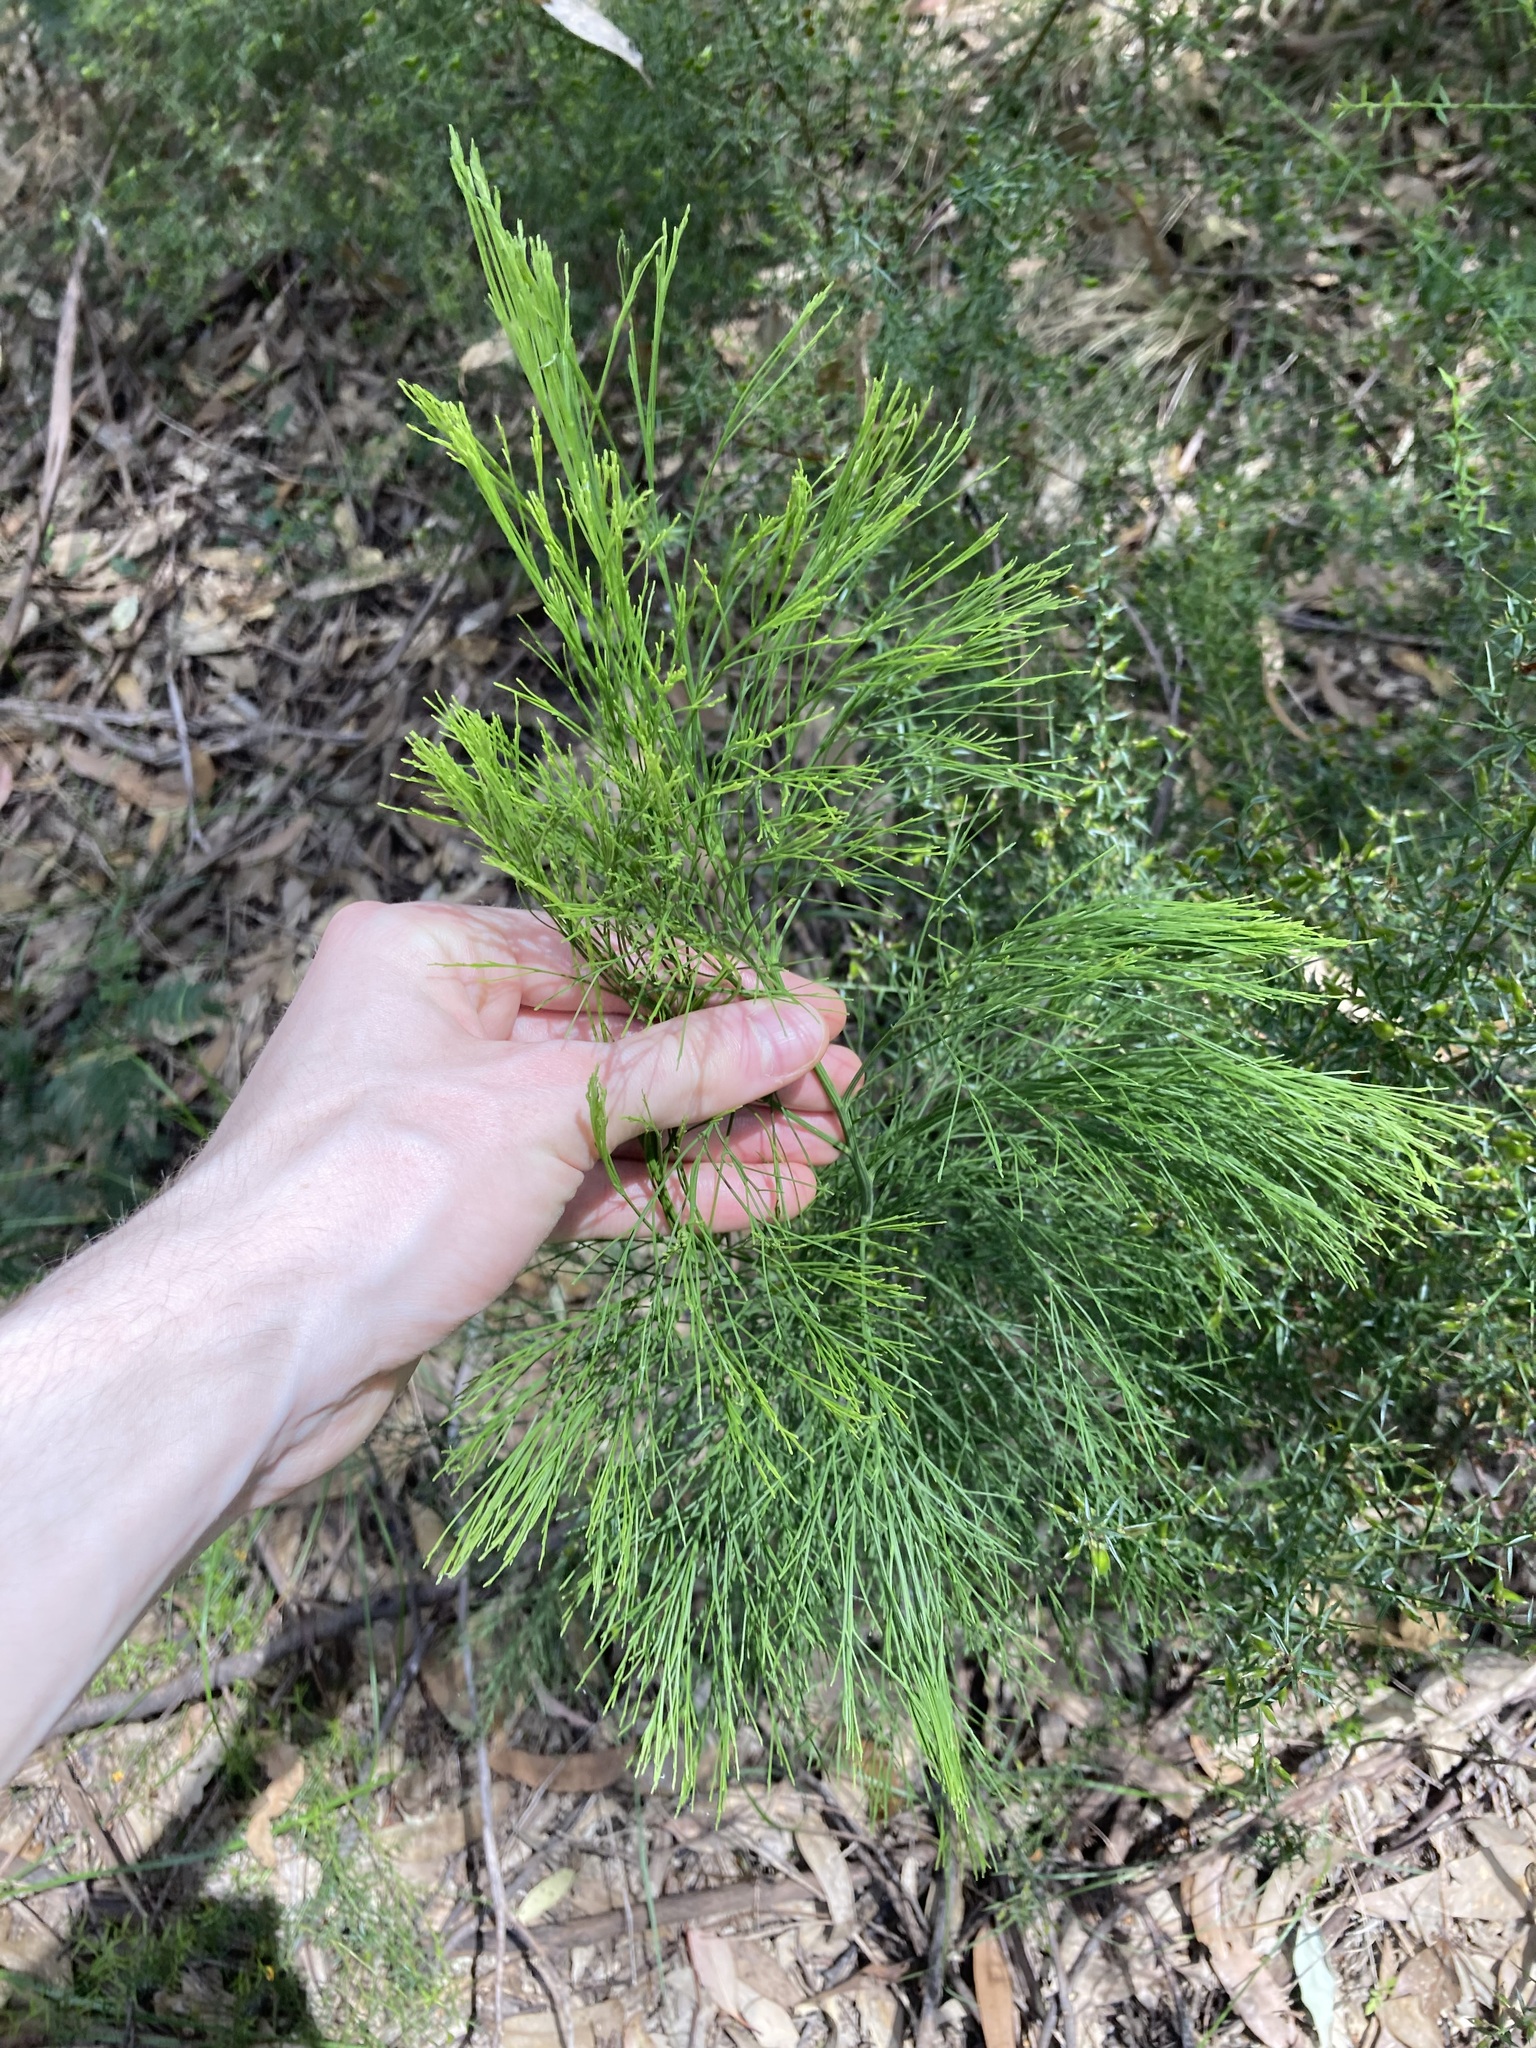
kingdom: Plantae
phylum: Tracheophyta
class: Magnoliopsida
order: Santalales
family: Santalaceae
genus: Exocarpos
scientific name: Exocarpos cupressiformis
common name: Cherry ballart
